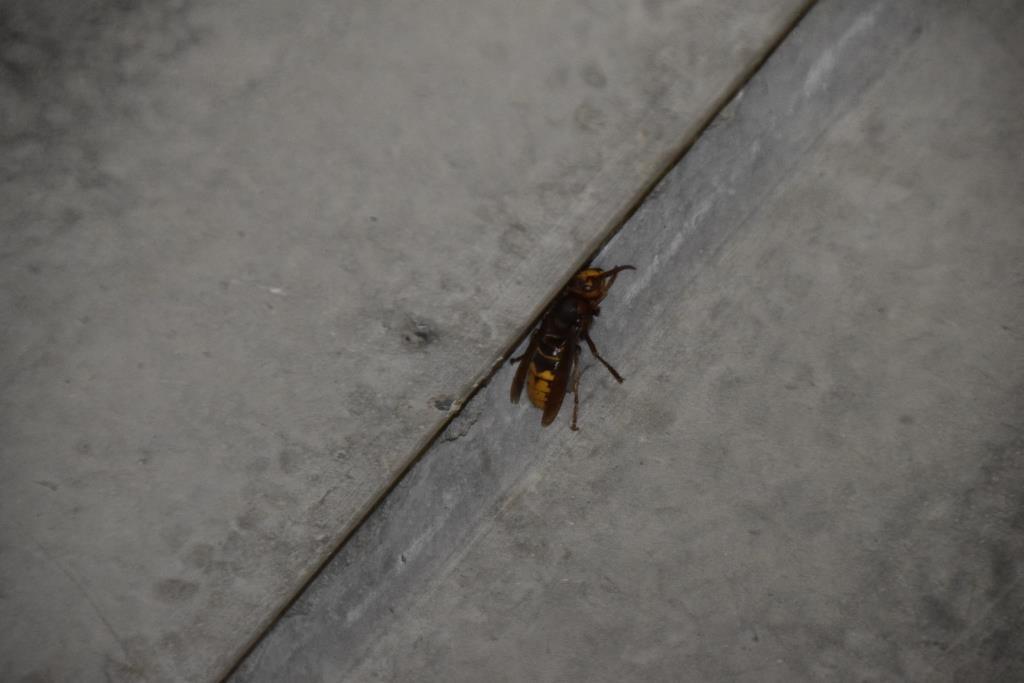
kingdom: Animalia
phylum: Arthropoda
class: Insecta
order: Hymenoptera
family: Vespidae
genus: Vespa
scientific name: Vespa crabro
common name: Hornet
